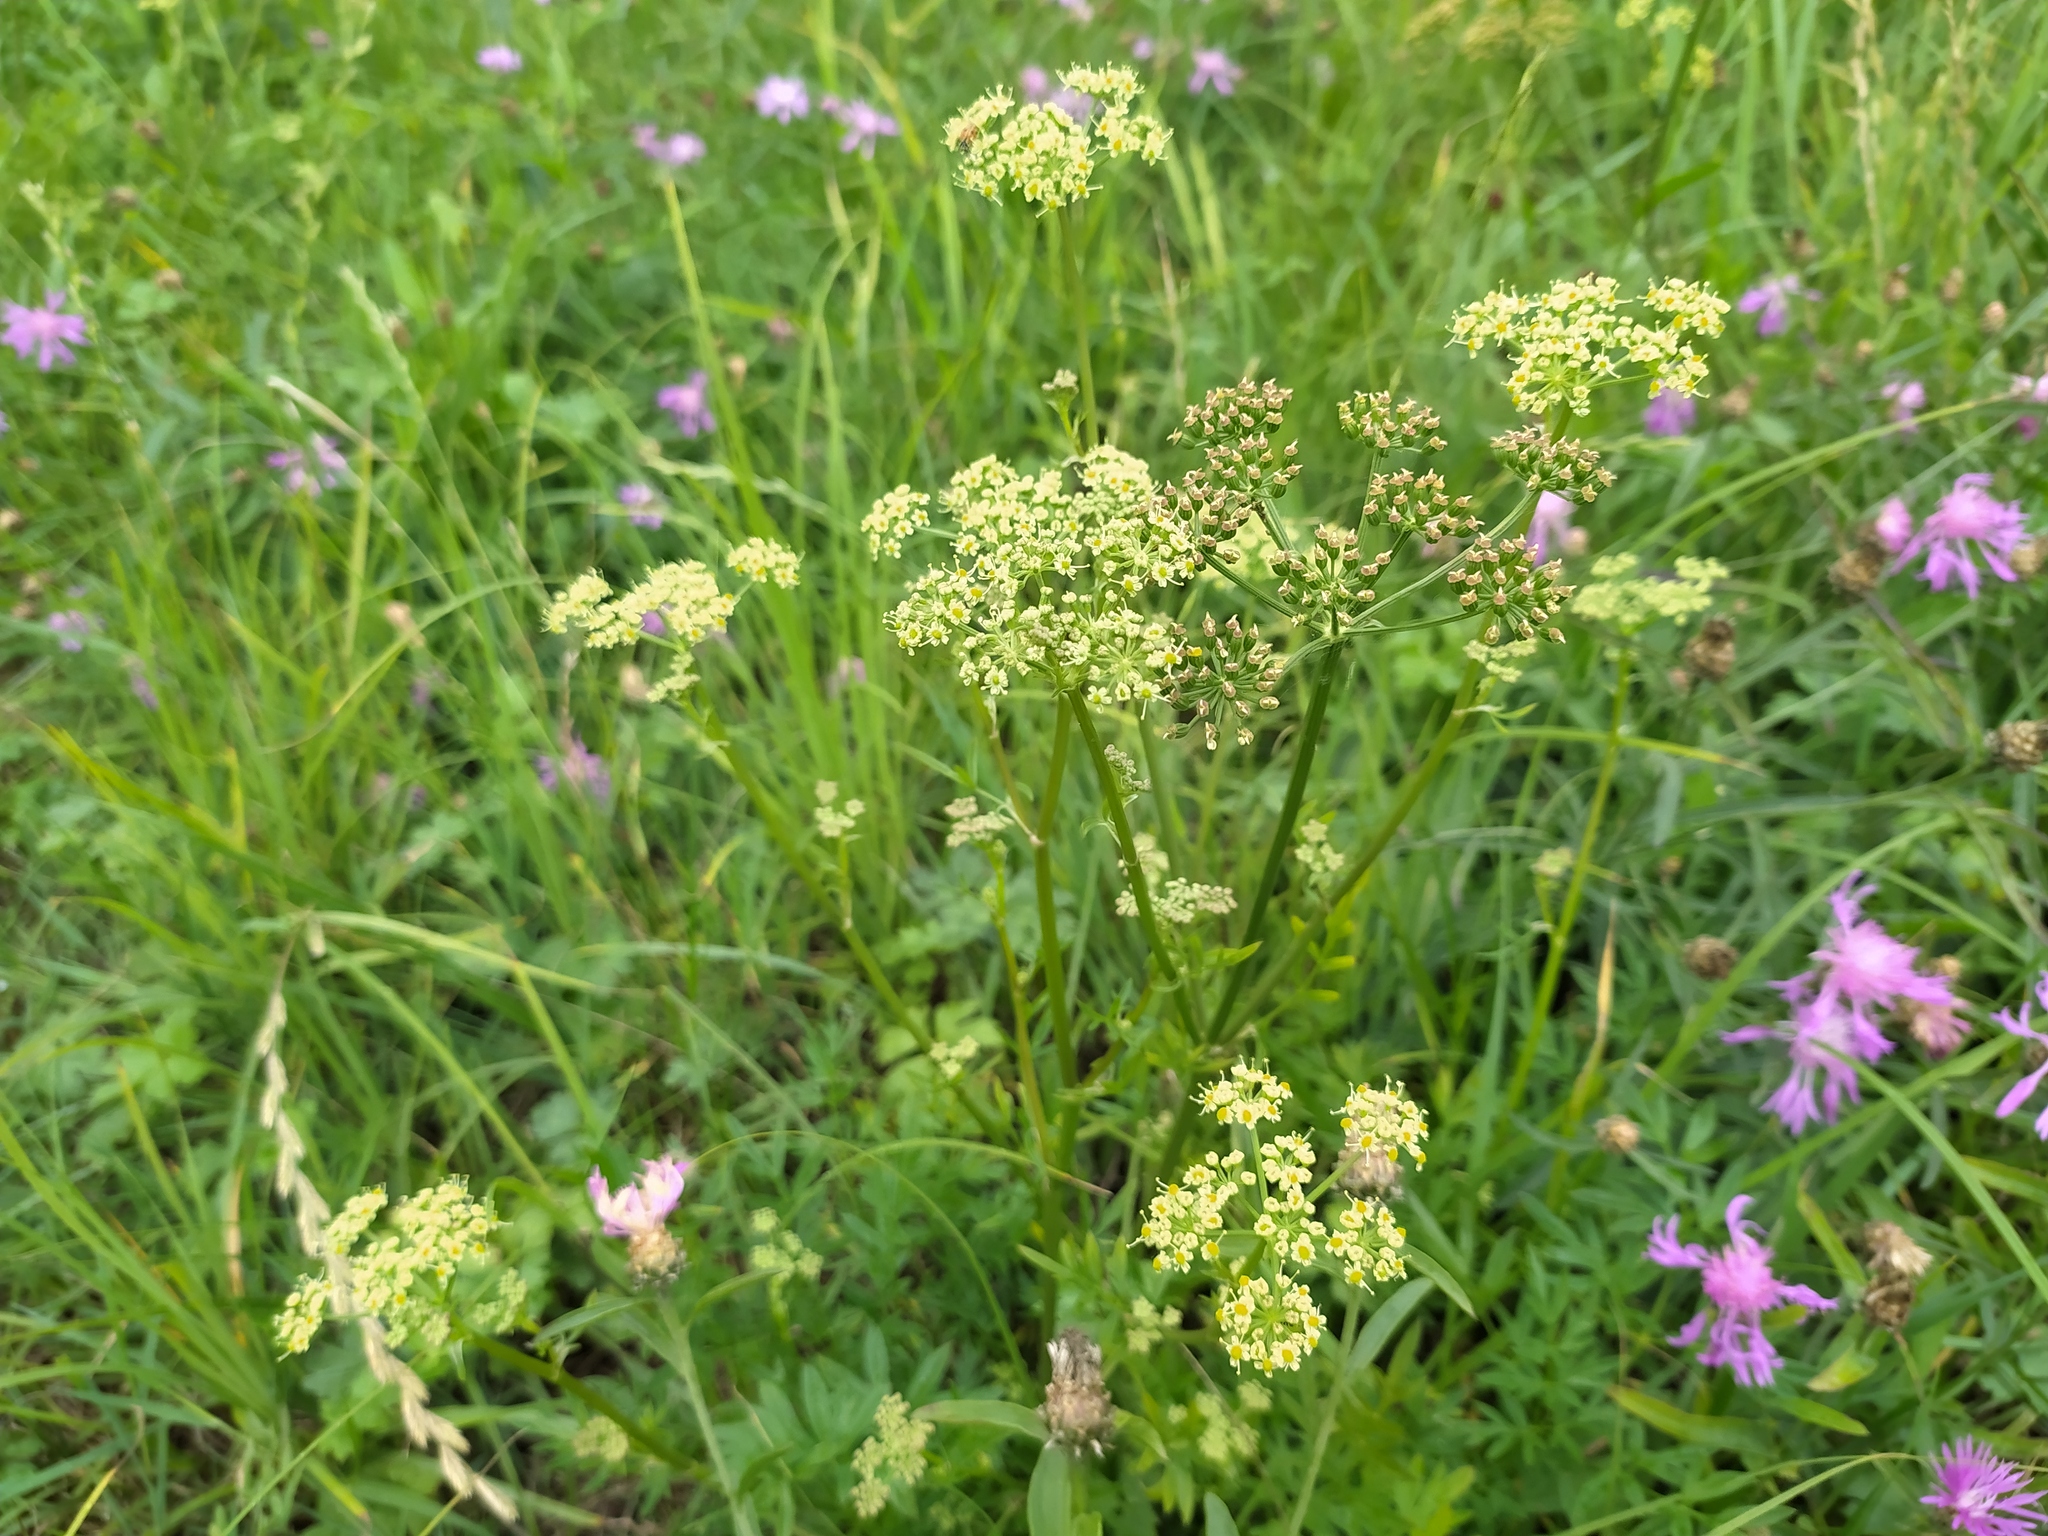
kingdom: Plantae
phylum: Tracheophyta
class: Magnoliopsida
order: Apiales
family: Apiaceae
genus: Silaum
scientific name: Silaum silaus
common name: Pepper-saxifrage
